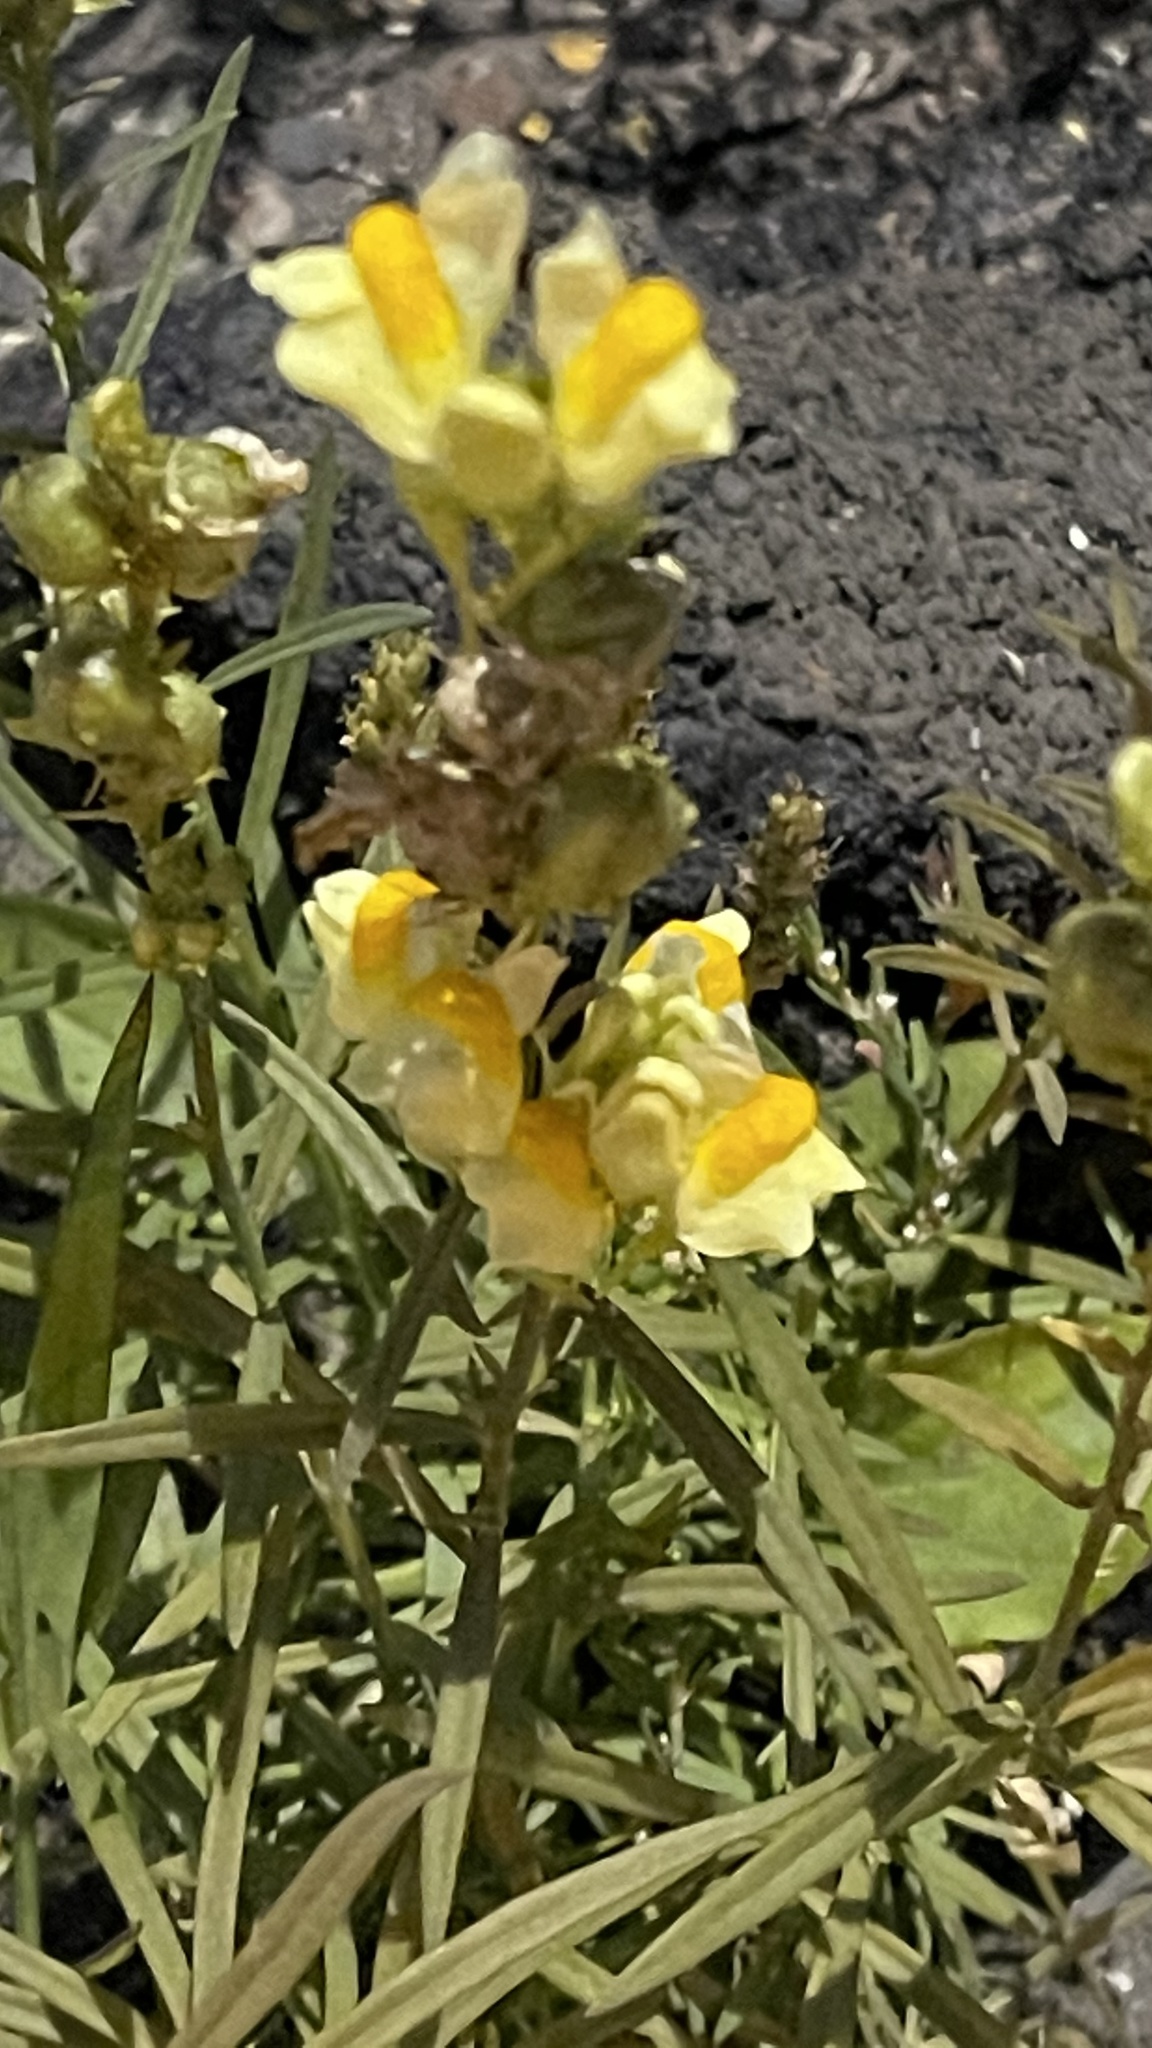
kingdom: Plantae
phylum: Tracheophyta
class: Magnoliopsida
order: Lamiales
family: Plantaginaceae
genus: Linaria
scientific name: Linaria vulgaris
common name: Butter and eggs
